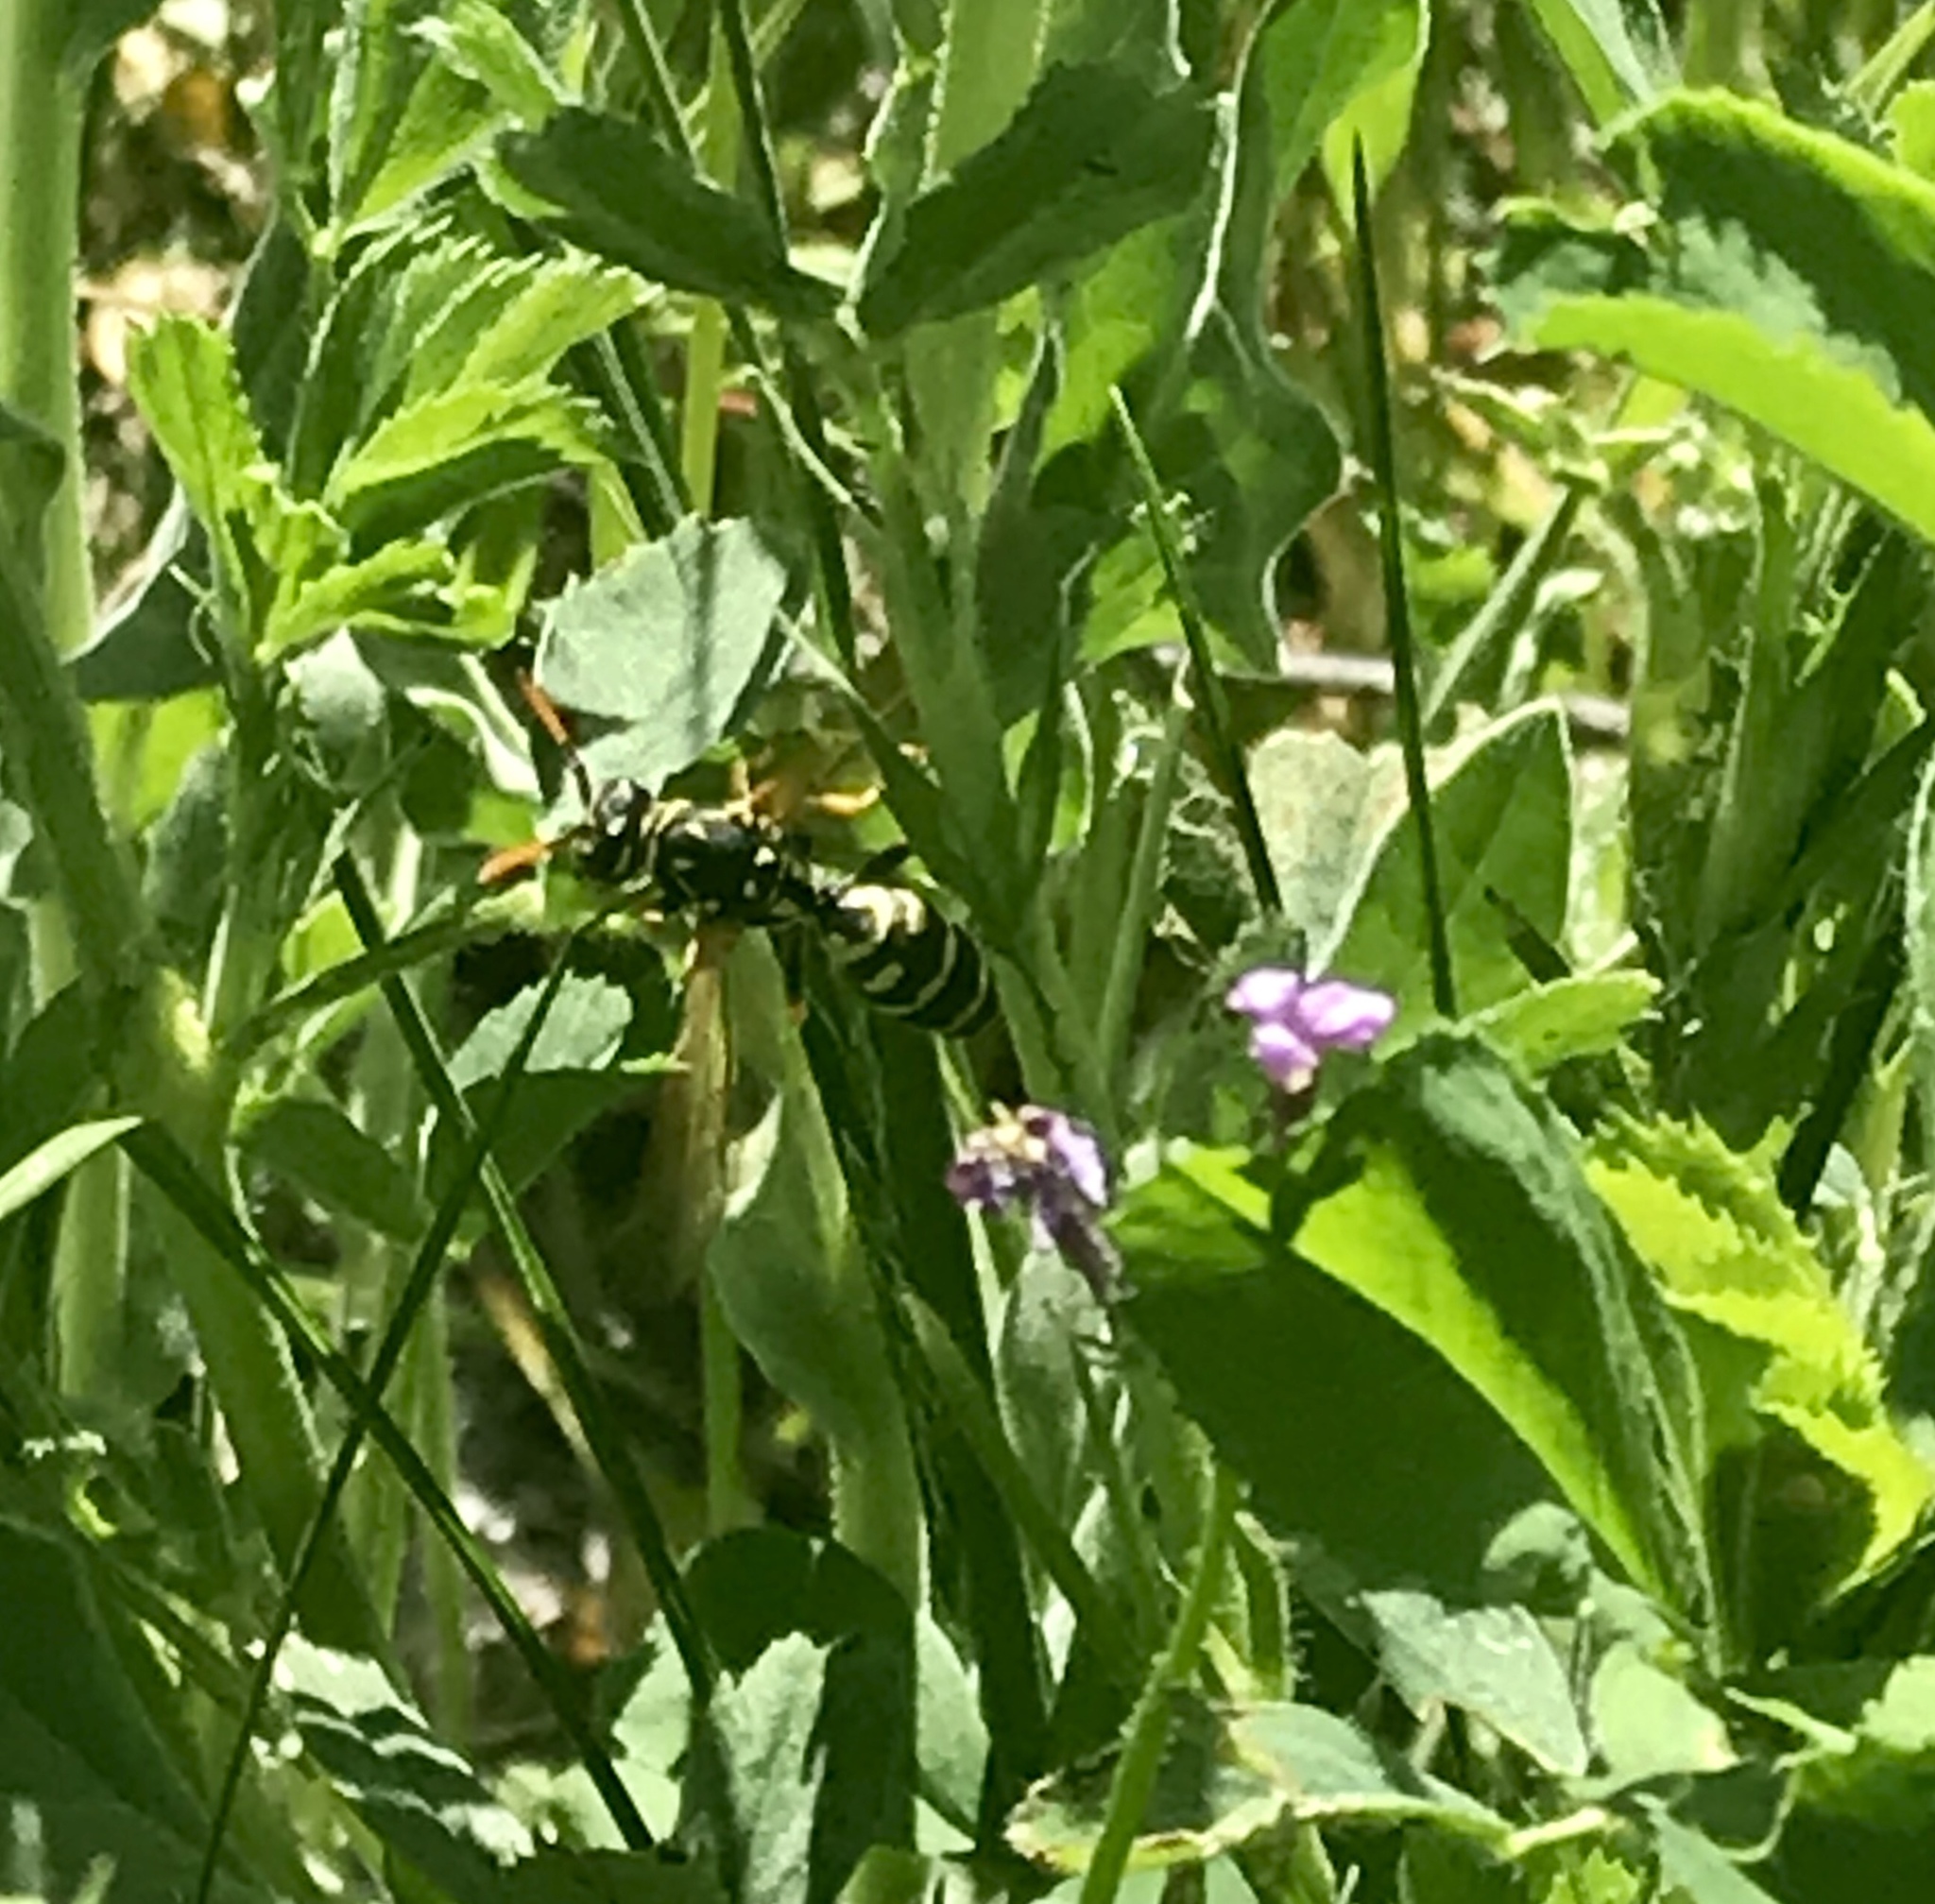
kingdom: Animalia
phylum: Arthropoda
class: Insecta
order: Hymenoptera
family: Eumenidae
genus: Polistes
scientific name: Polistes dominula
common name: Paper wasp
